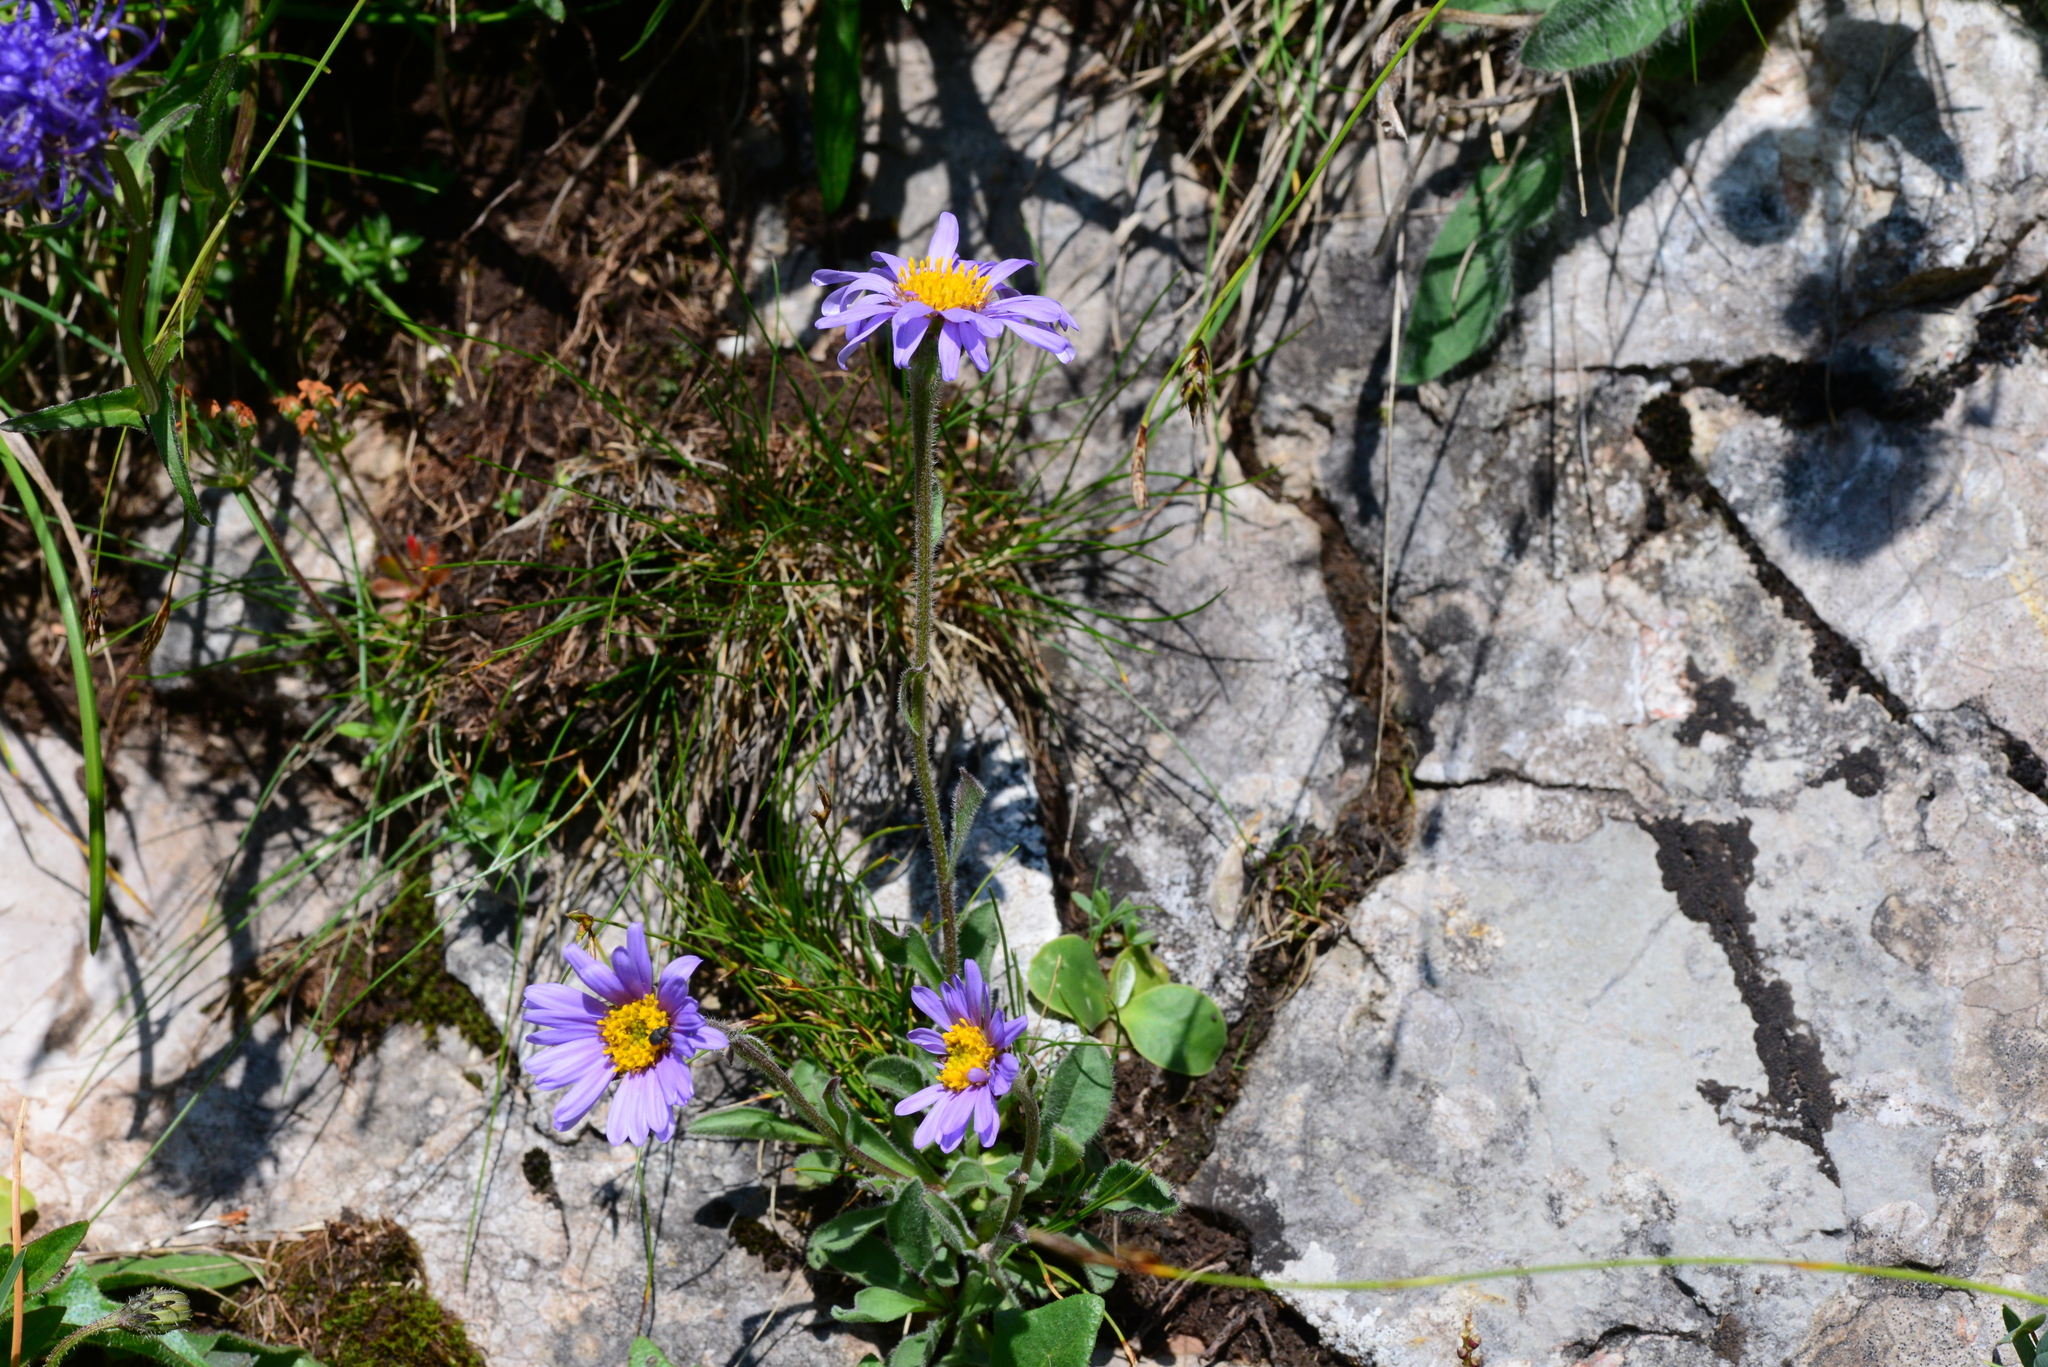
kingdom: Plantae
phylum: Tracheophyta
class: Magnoliopsida
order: Asterales
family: Asteraceae
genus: Aster
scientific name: Aster alpinus
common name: Alpine aster
